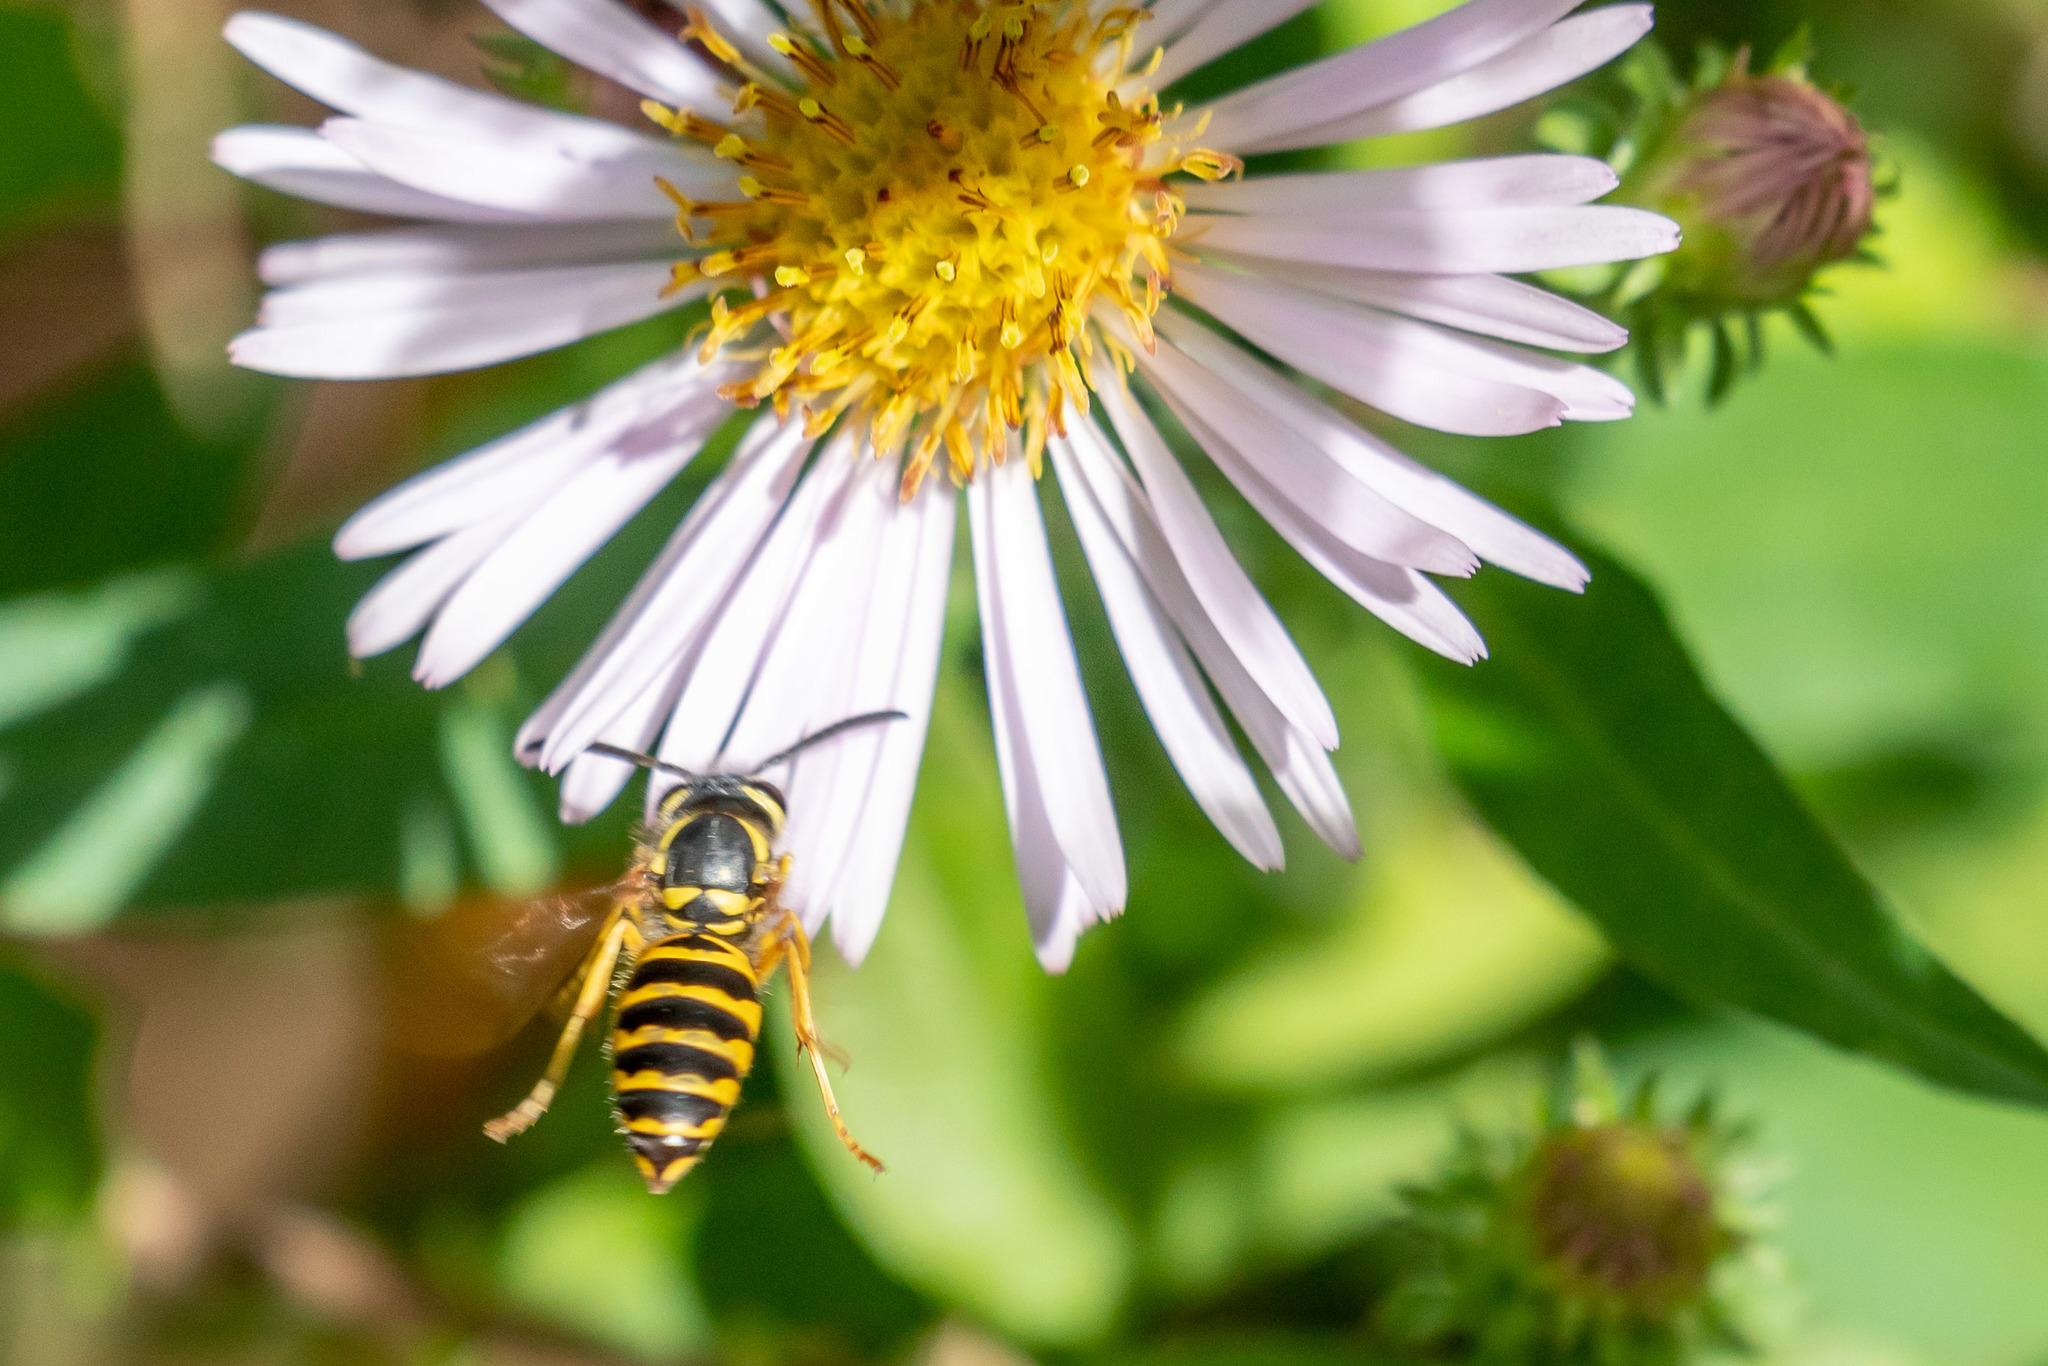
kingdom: Animalia
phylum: Arthropoda
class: Insecta
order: Hymenoptera
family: Vespidae
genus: Vespula
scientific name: Vespula maculifrons
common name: Eastern yellowjacket
